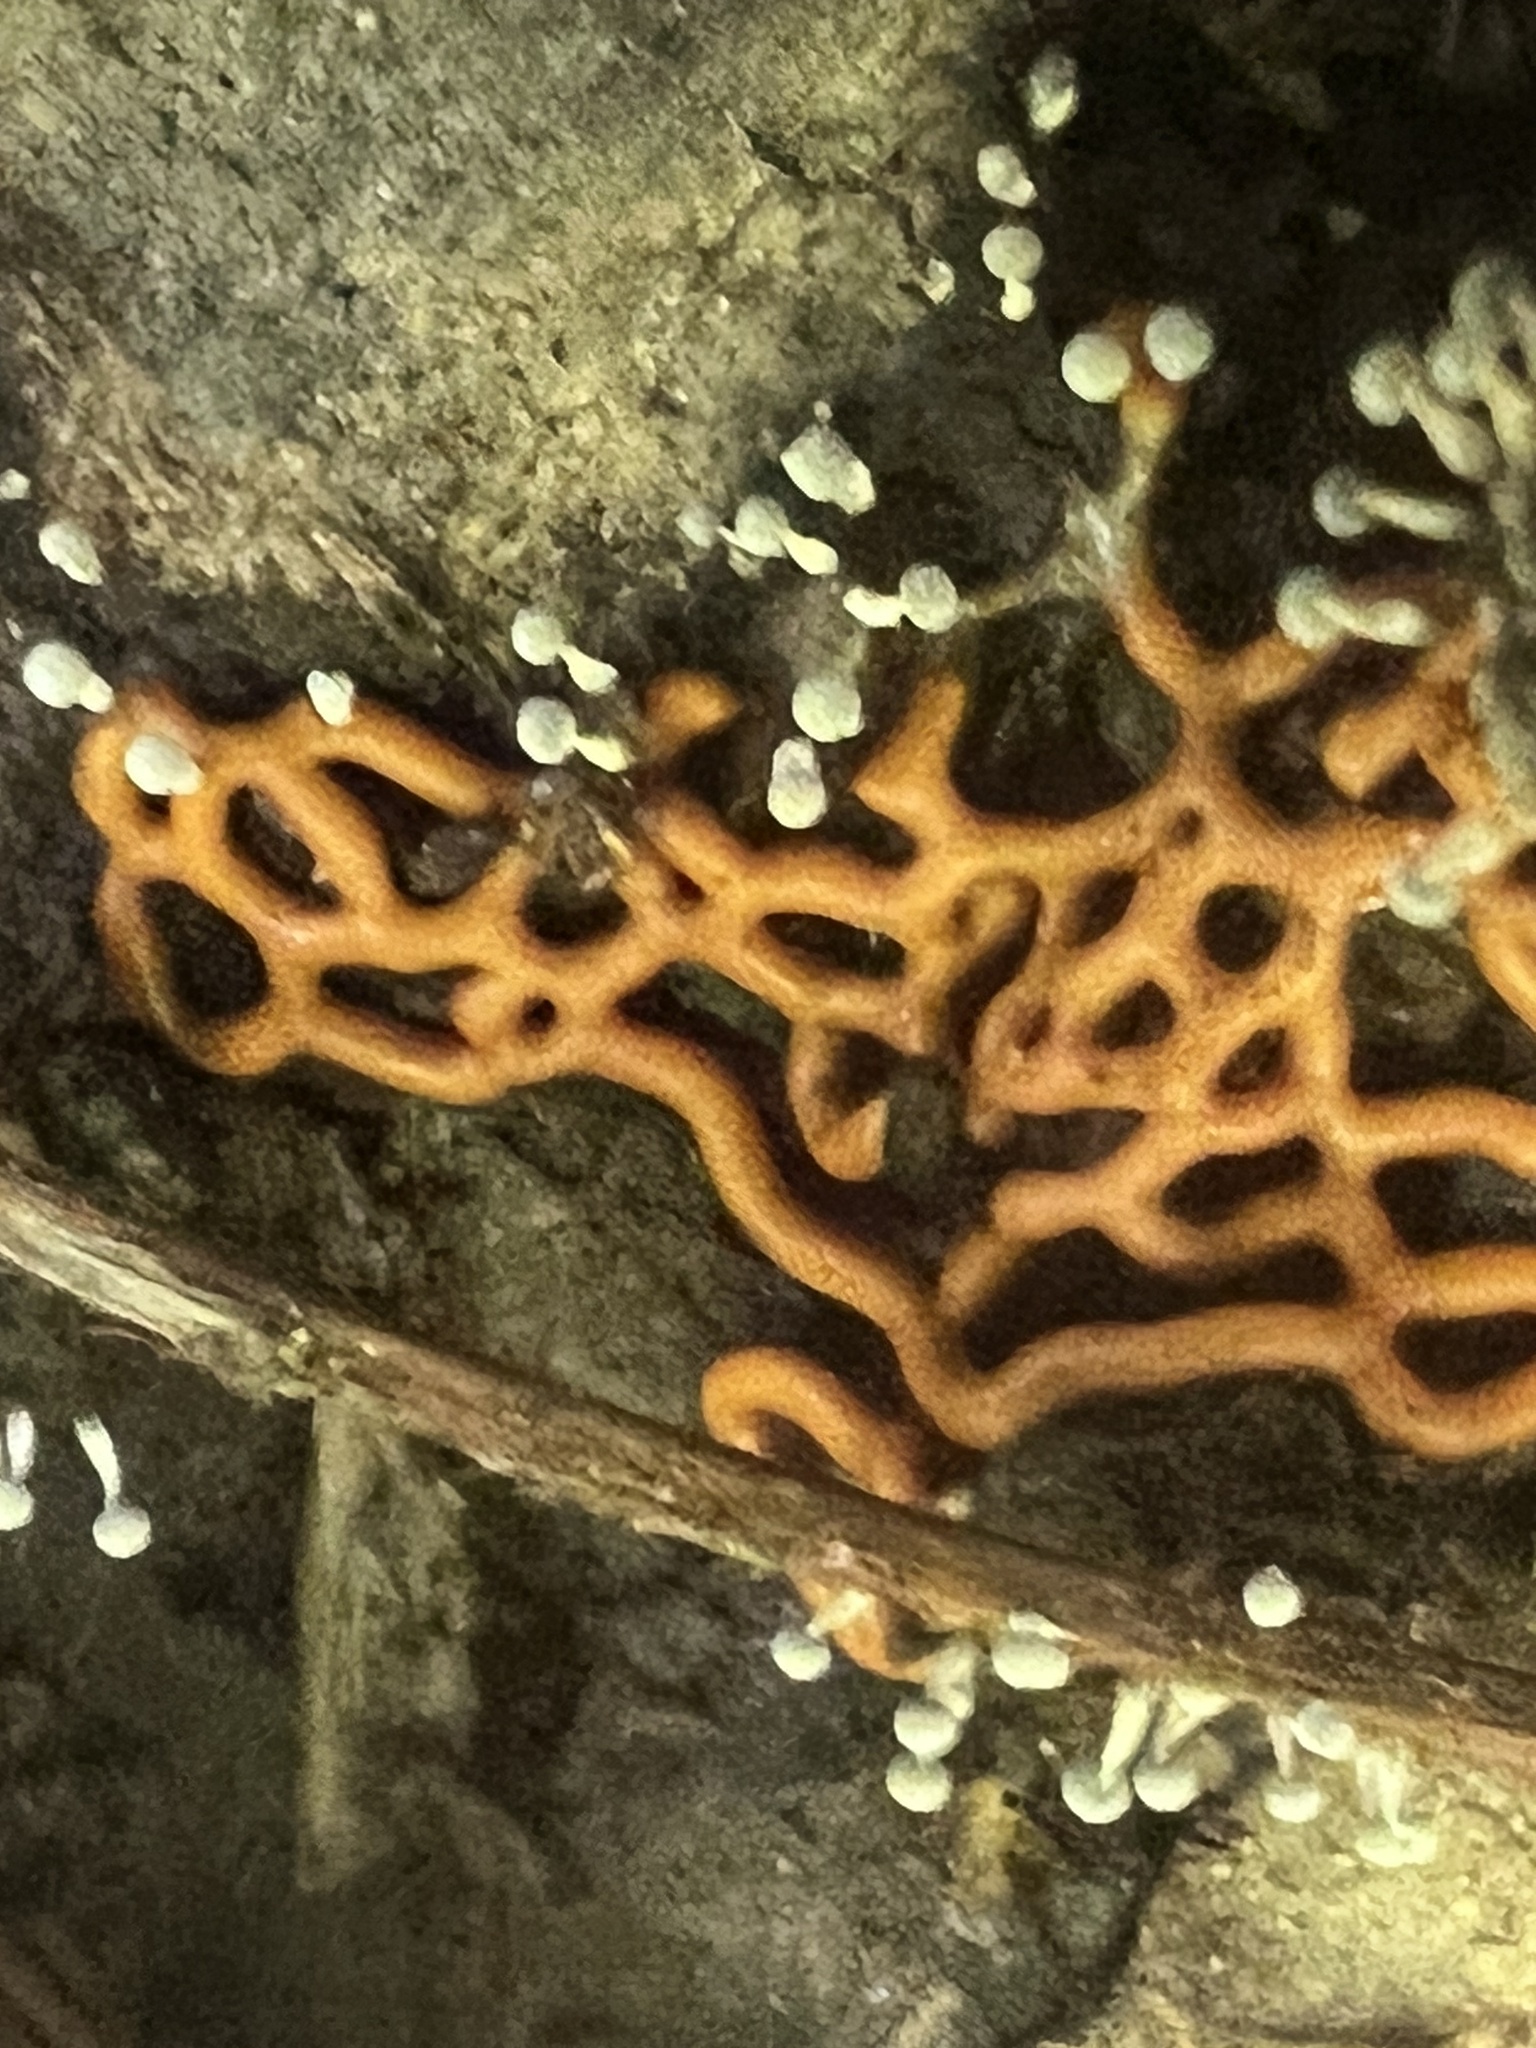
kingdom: Protozoa
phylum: Mycetozoa
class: Myxomycetes
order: Trichiales
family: Arcyriaceae
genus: Hemitrichia
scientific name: Hemitrichia serpula
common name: Pretzel slime mold
